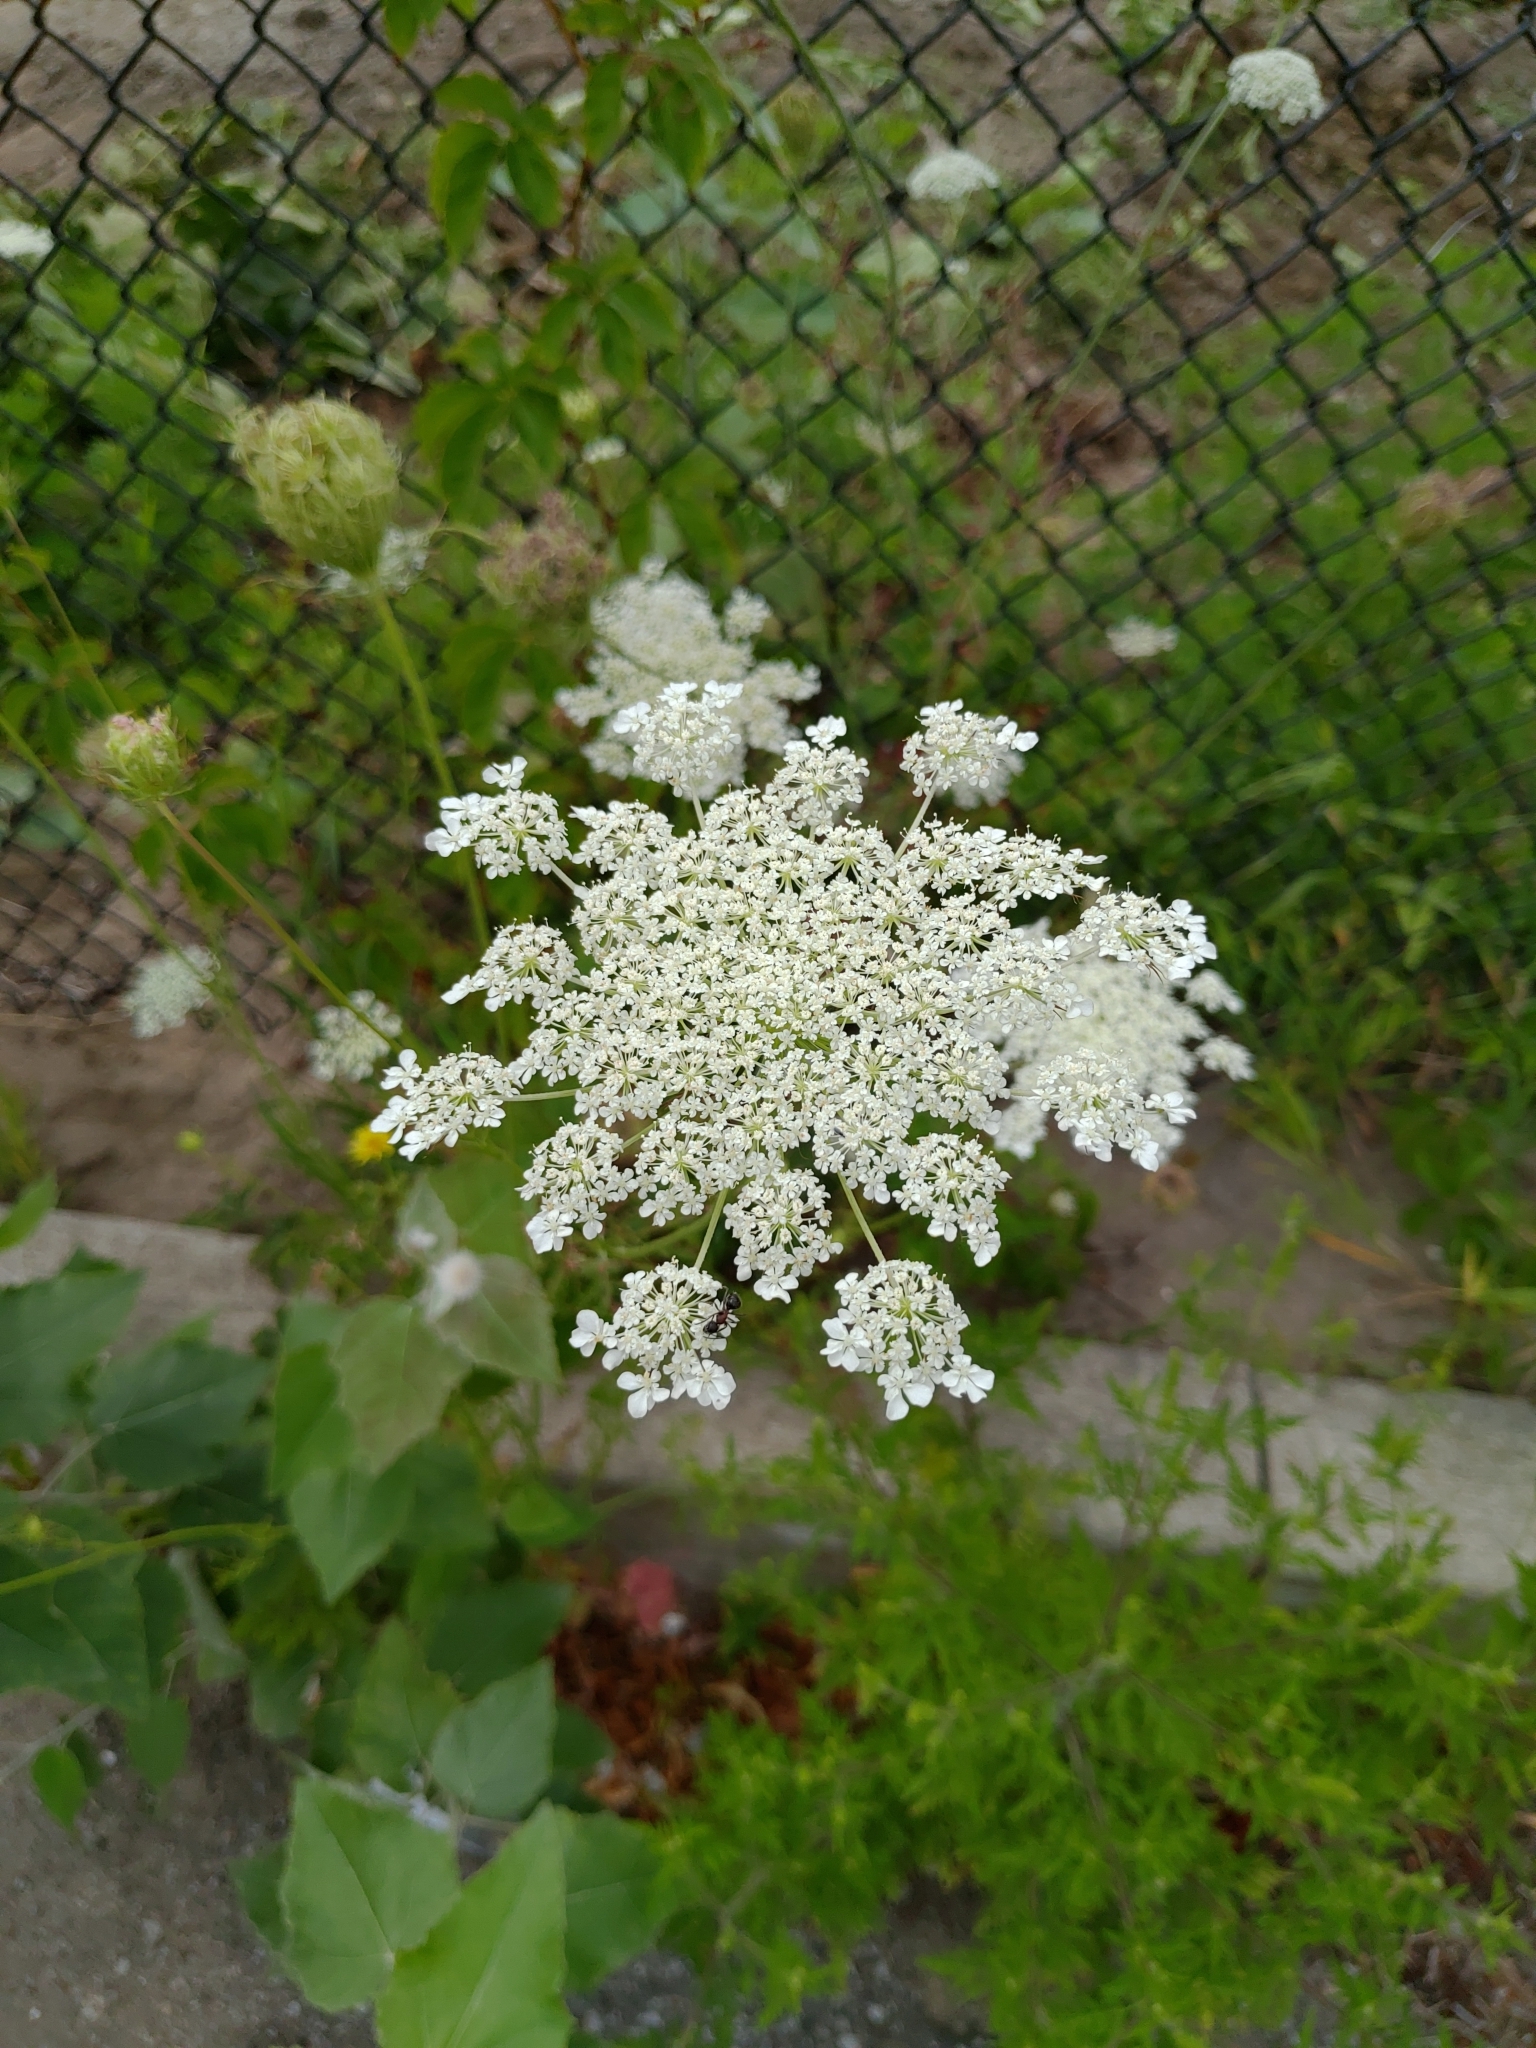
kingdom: Plantae
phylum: Tracheophyta
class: Magnoliopsida
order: Apiales
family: Apiaceae
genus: Daucus
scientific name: Daucus carota
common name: Wild carrot
